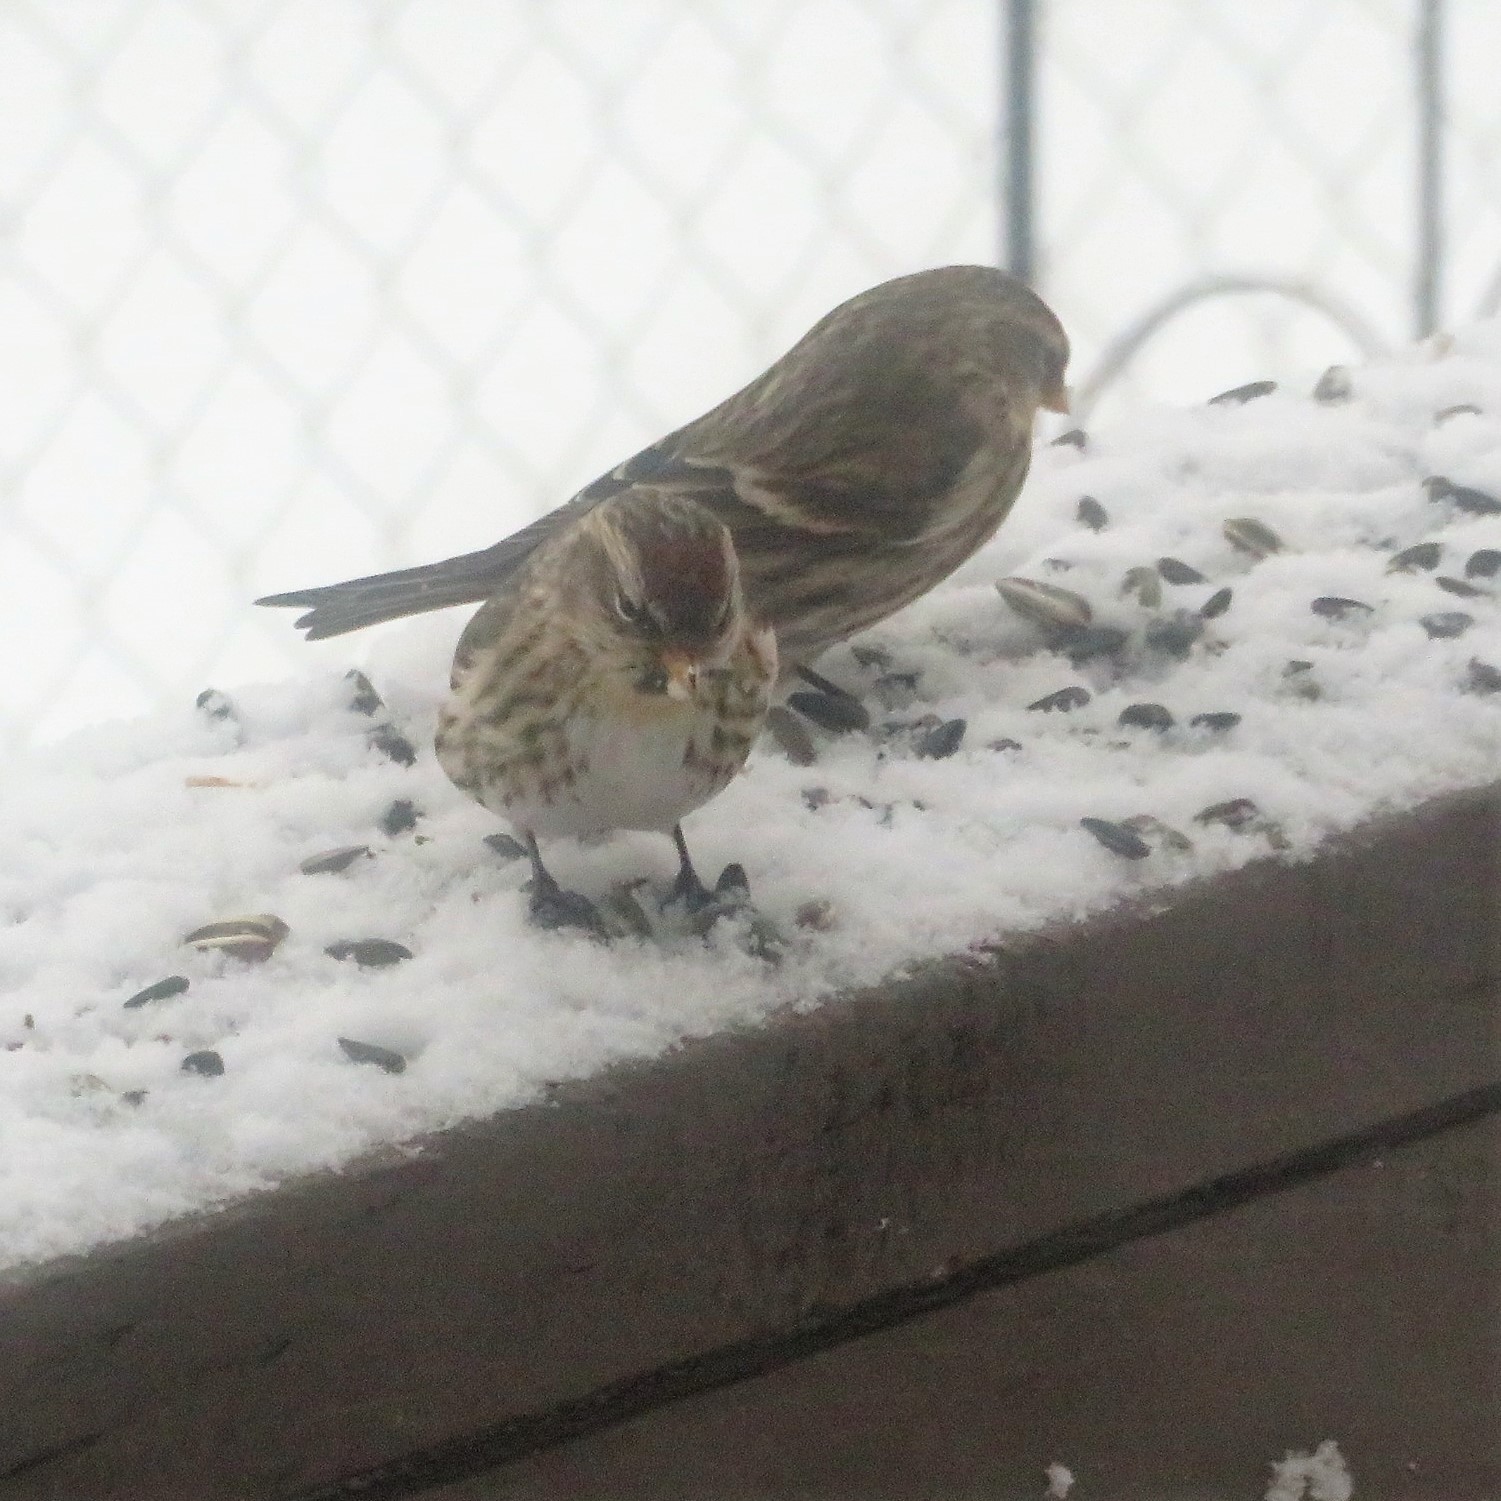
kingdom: Animalia
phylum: Chordata
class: Aves
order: Passeriformes
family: Fringillidae
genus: Acanthis
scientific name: Acanthis flammea
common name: Common redpoll
